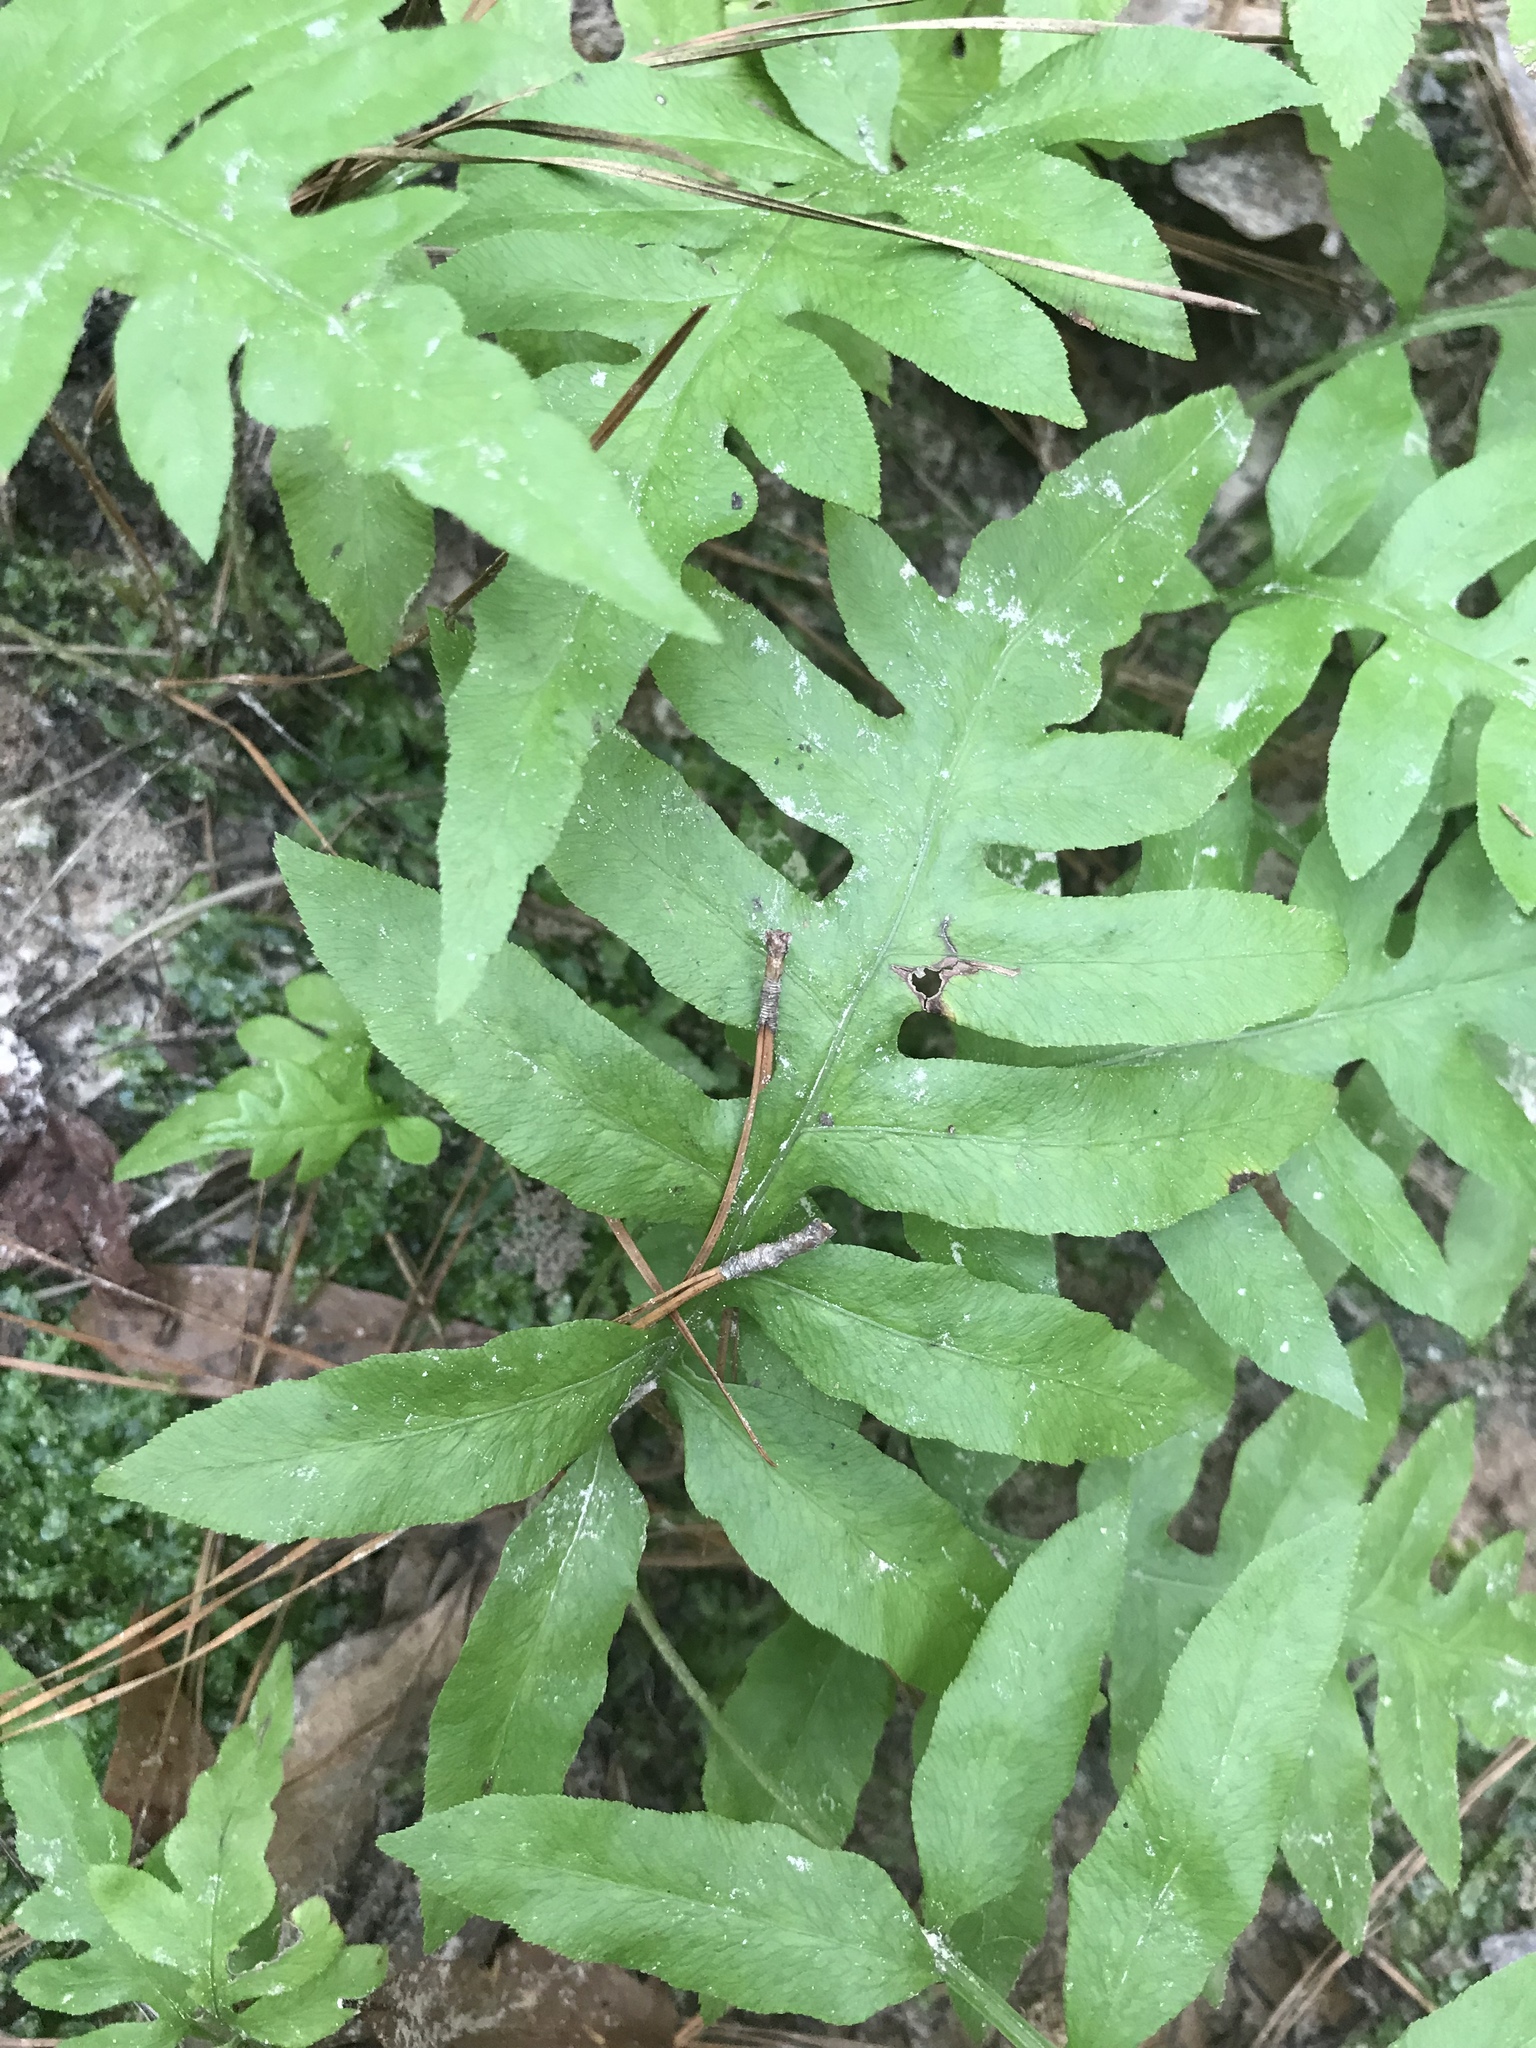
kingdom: Plantae
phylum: Tracheophyta
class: Polypodiopsida
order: Polypodiales
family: Blechnaceae
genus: Lorinseria
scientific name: Lorinseria areolata
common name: Dwarf chain fern
